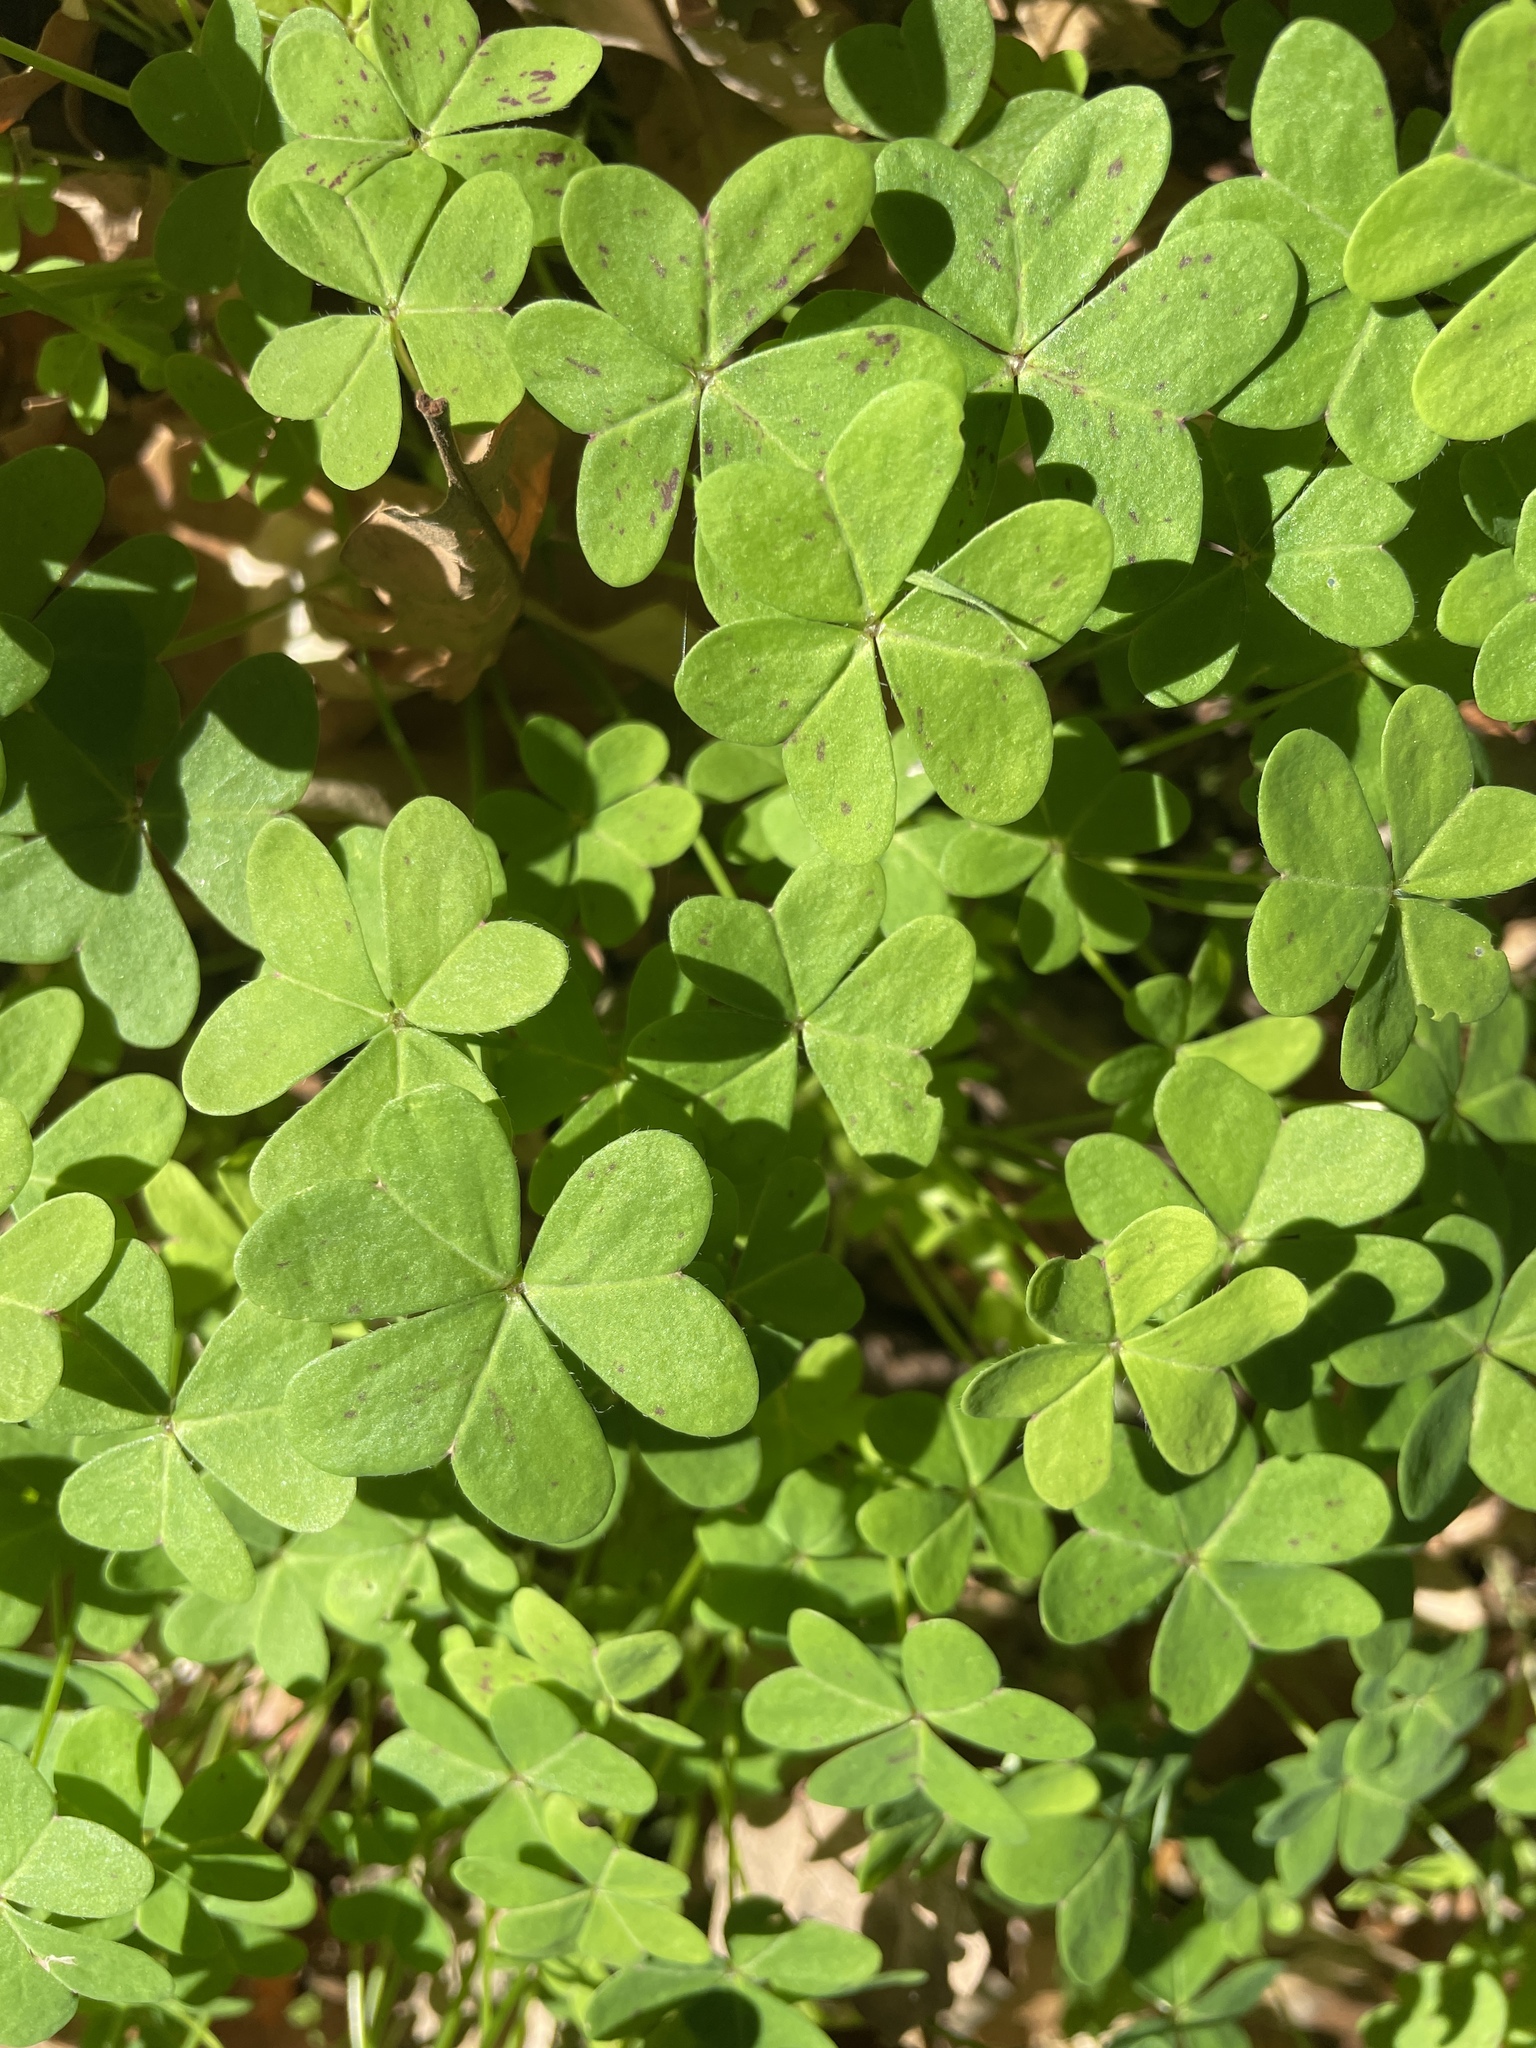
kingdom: Plantae
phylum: Tracheophyta
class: Magnoliopsida
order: Oxalidales
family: Oxalidaceae
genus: Oxalis
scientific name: Oxalis pes-caprae
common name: Bermuda-buttercup
